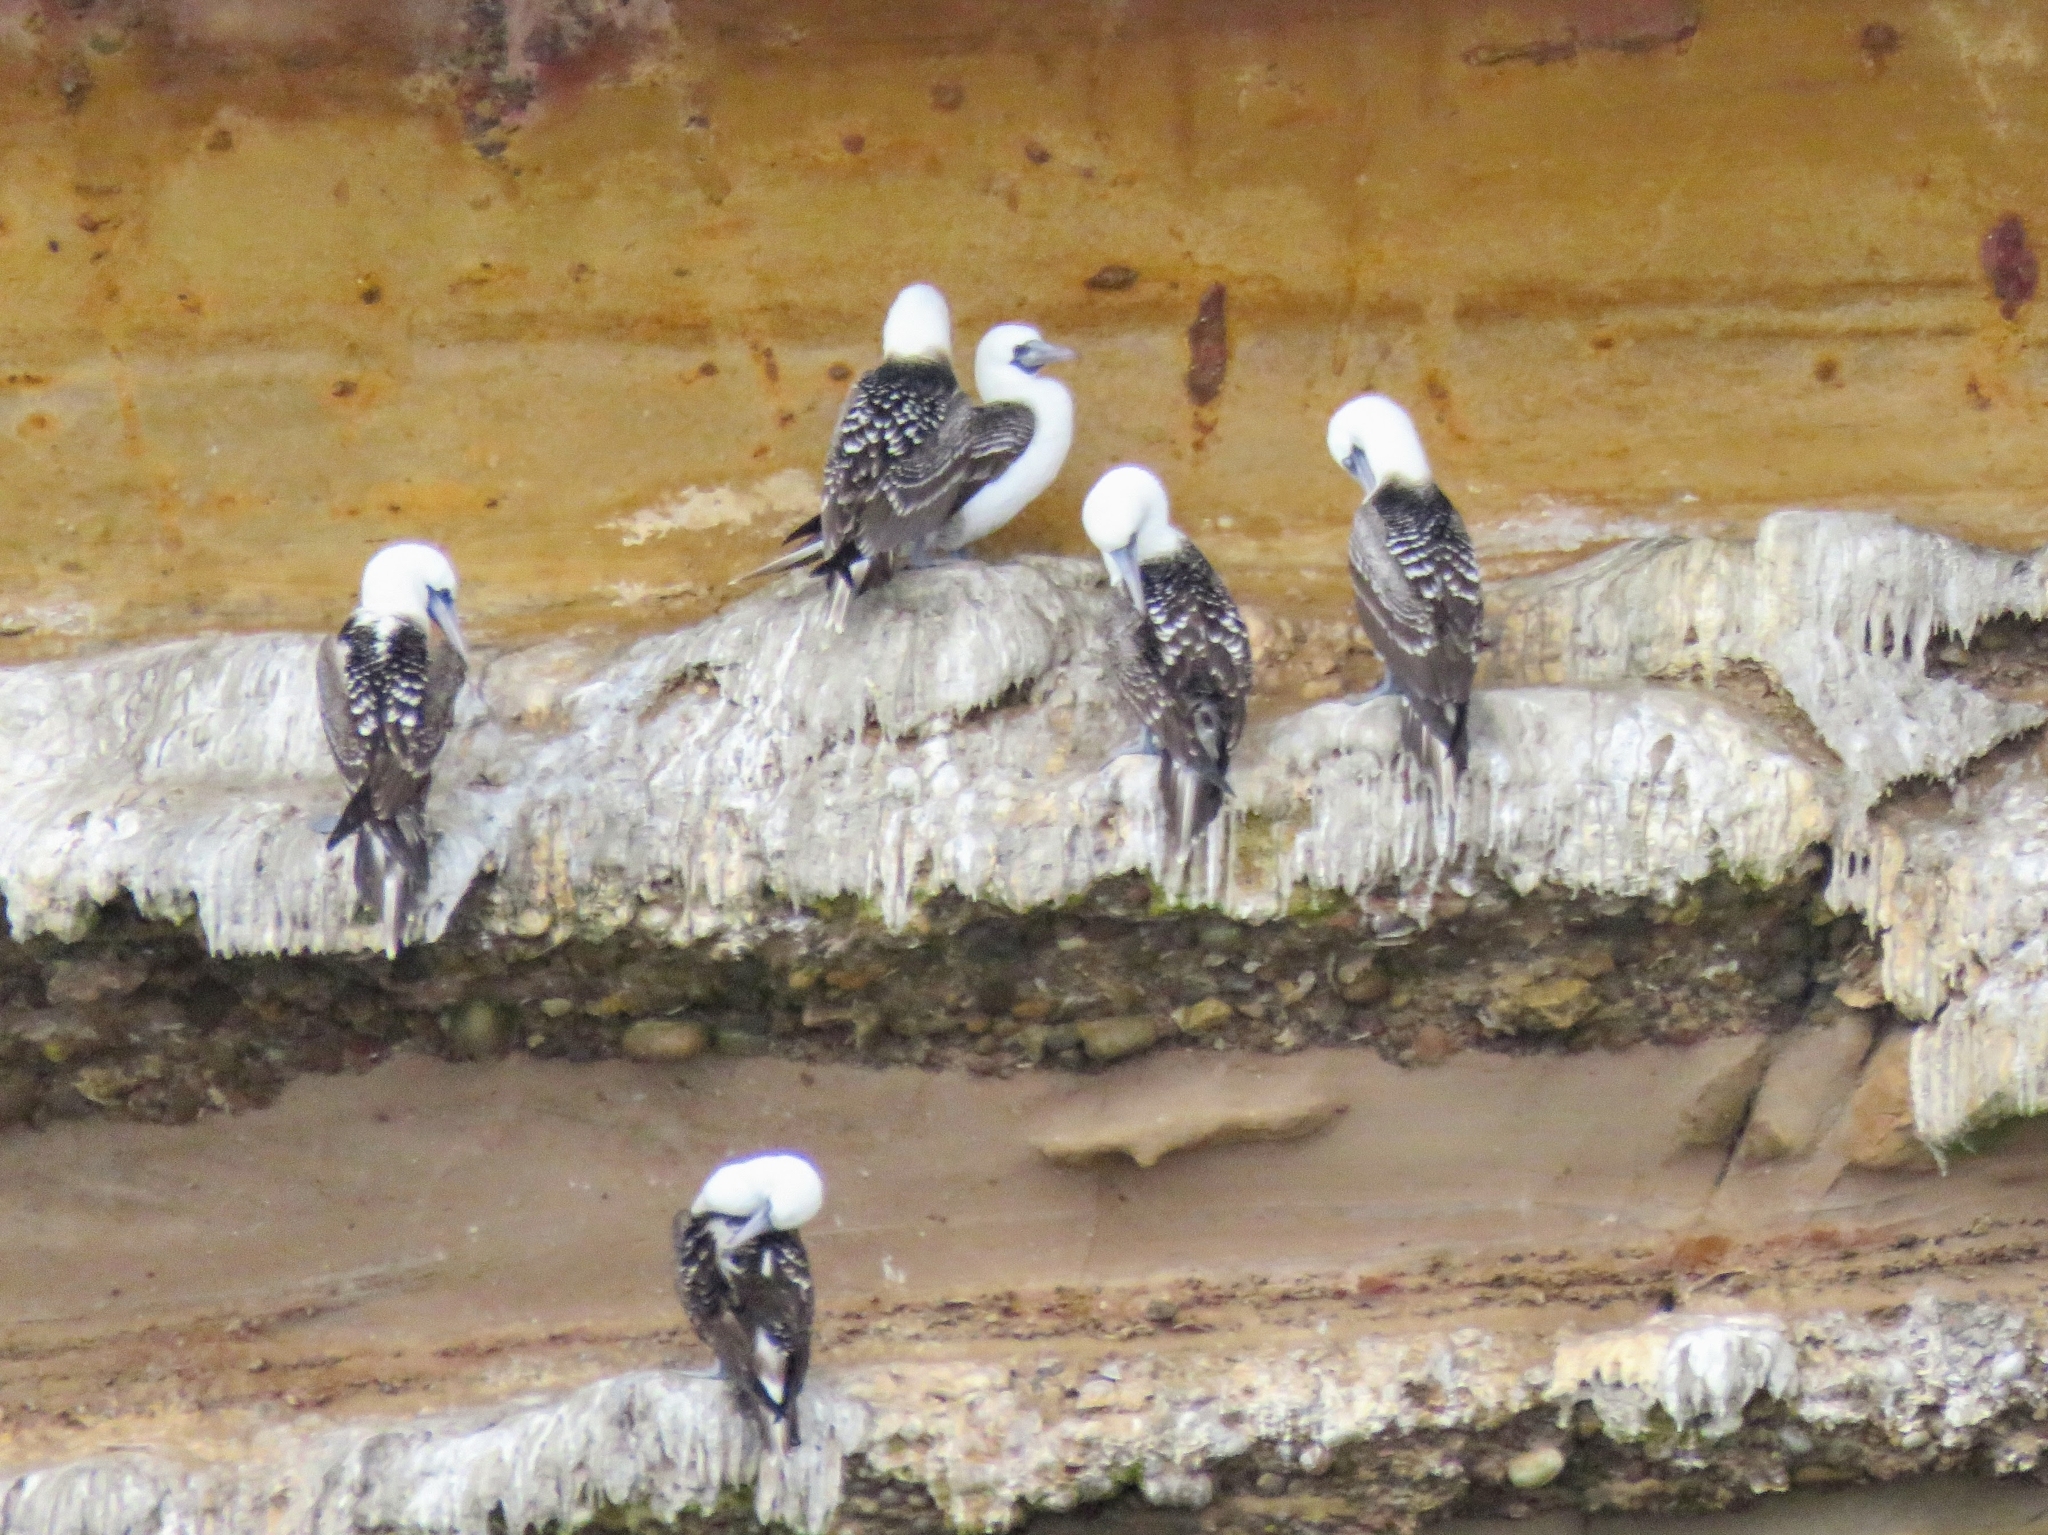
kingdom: Animalia
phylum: Chordata
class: Aves
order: Suliformes
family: Sulidae
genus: Sula
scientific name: Sula variegata
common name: Peruvian booby
